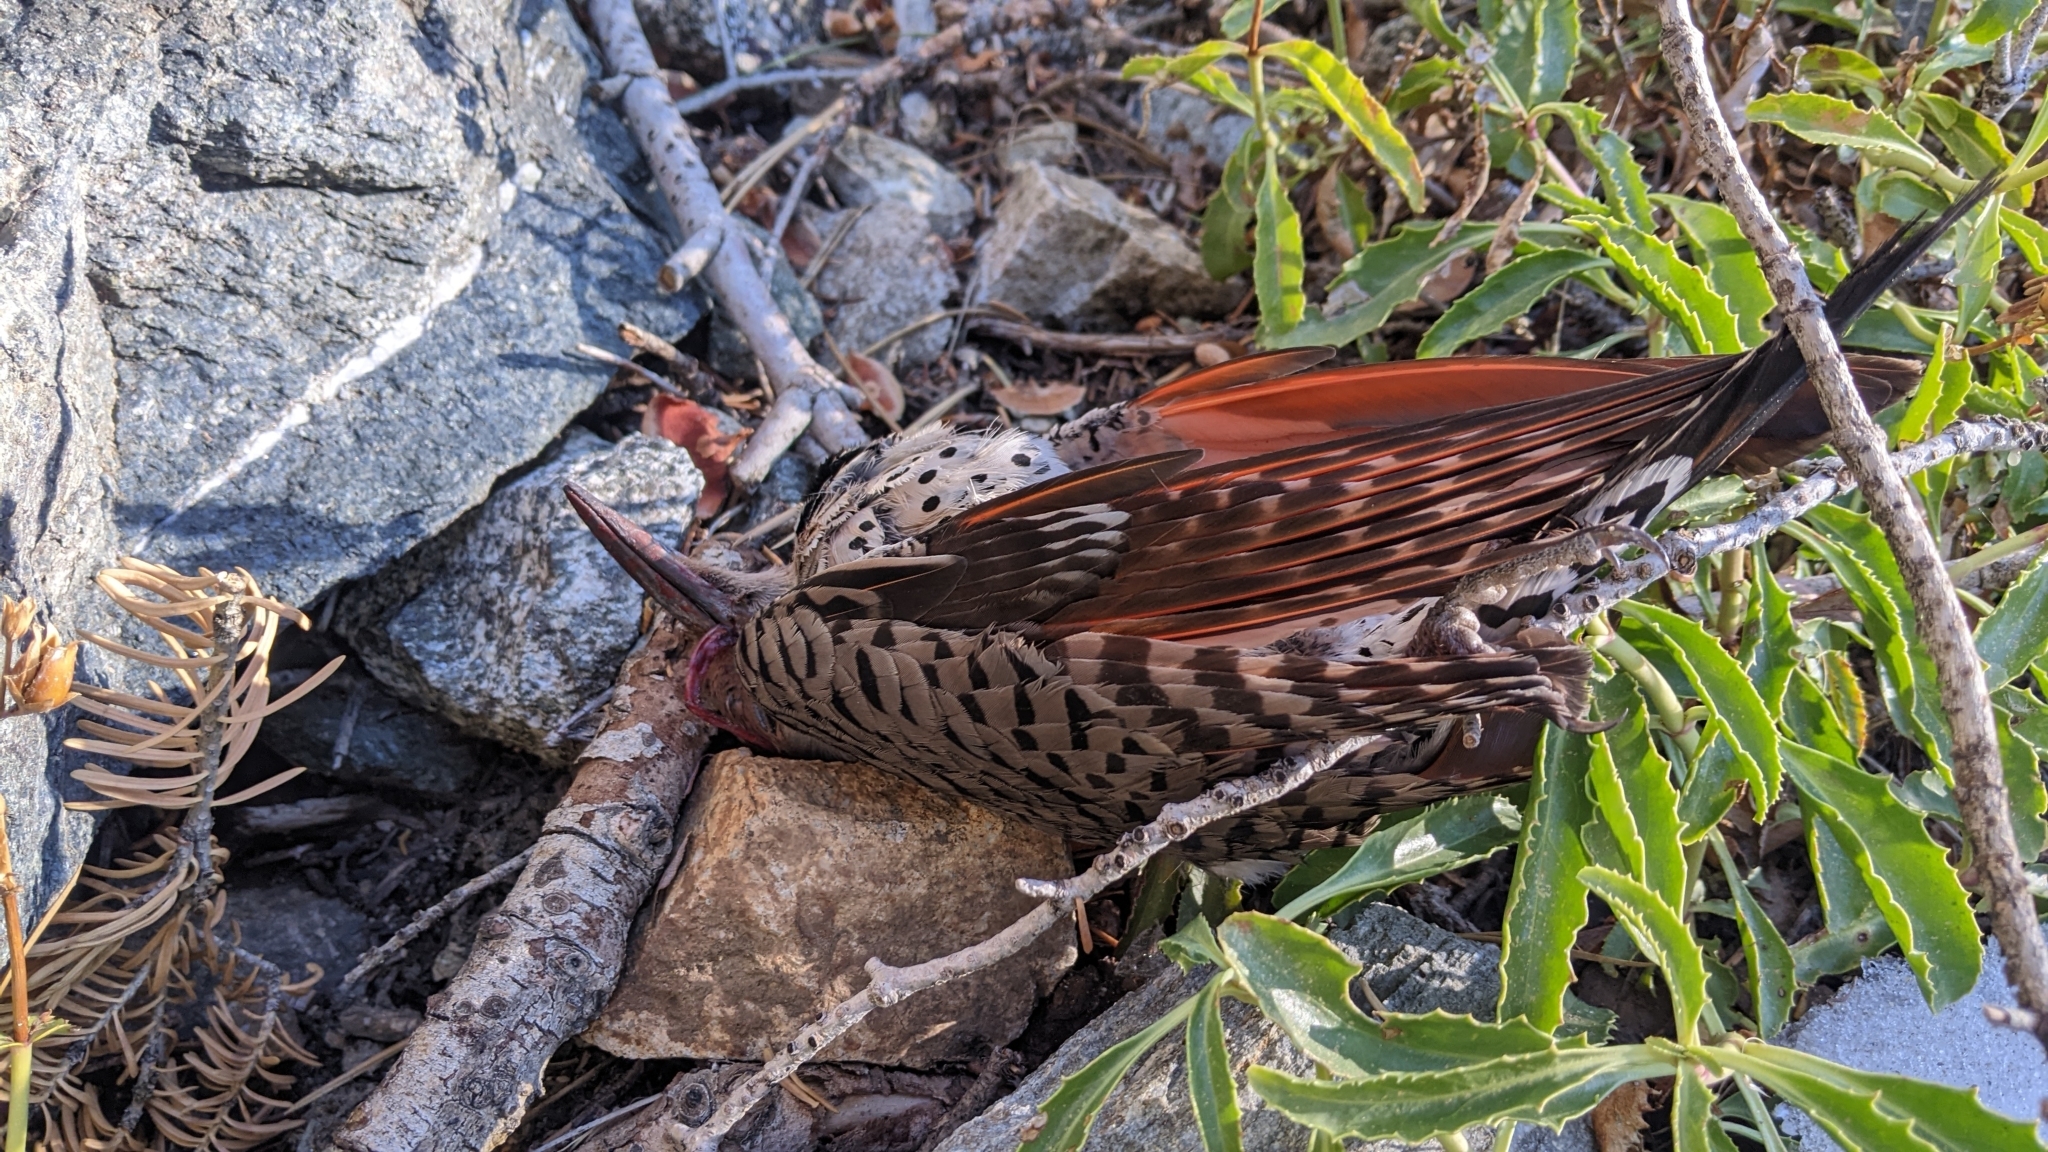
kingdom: Animalia
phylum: Chordata
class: Aves
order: Piciformes
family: Picidae
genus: Colaptes
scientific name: Colaptes auratus
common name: Northern flicker
